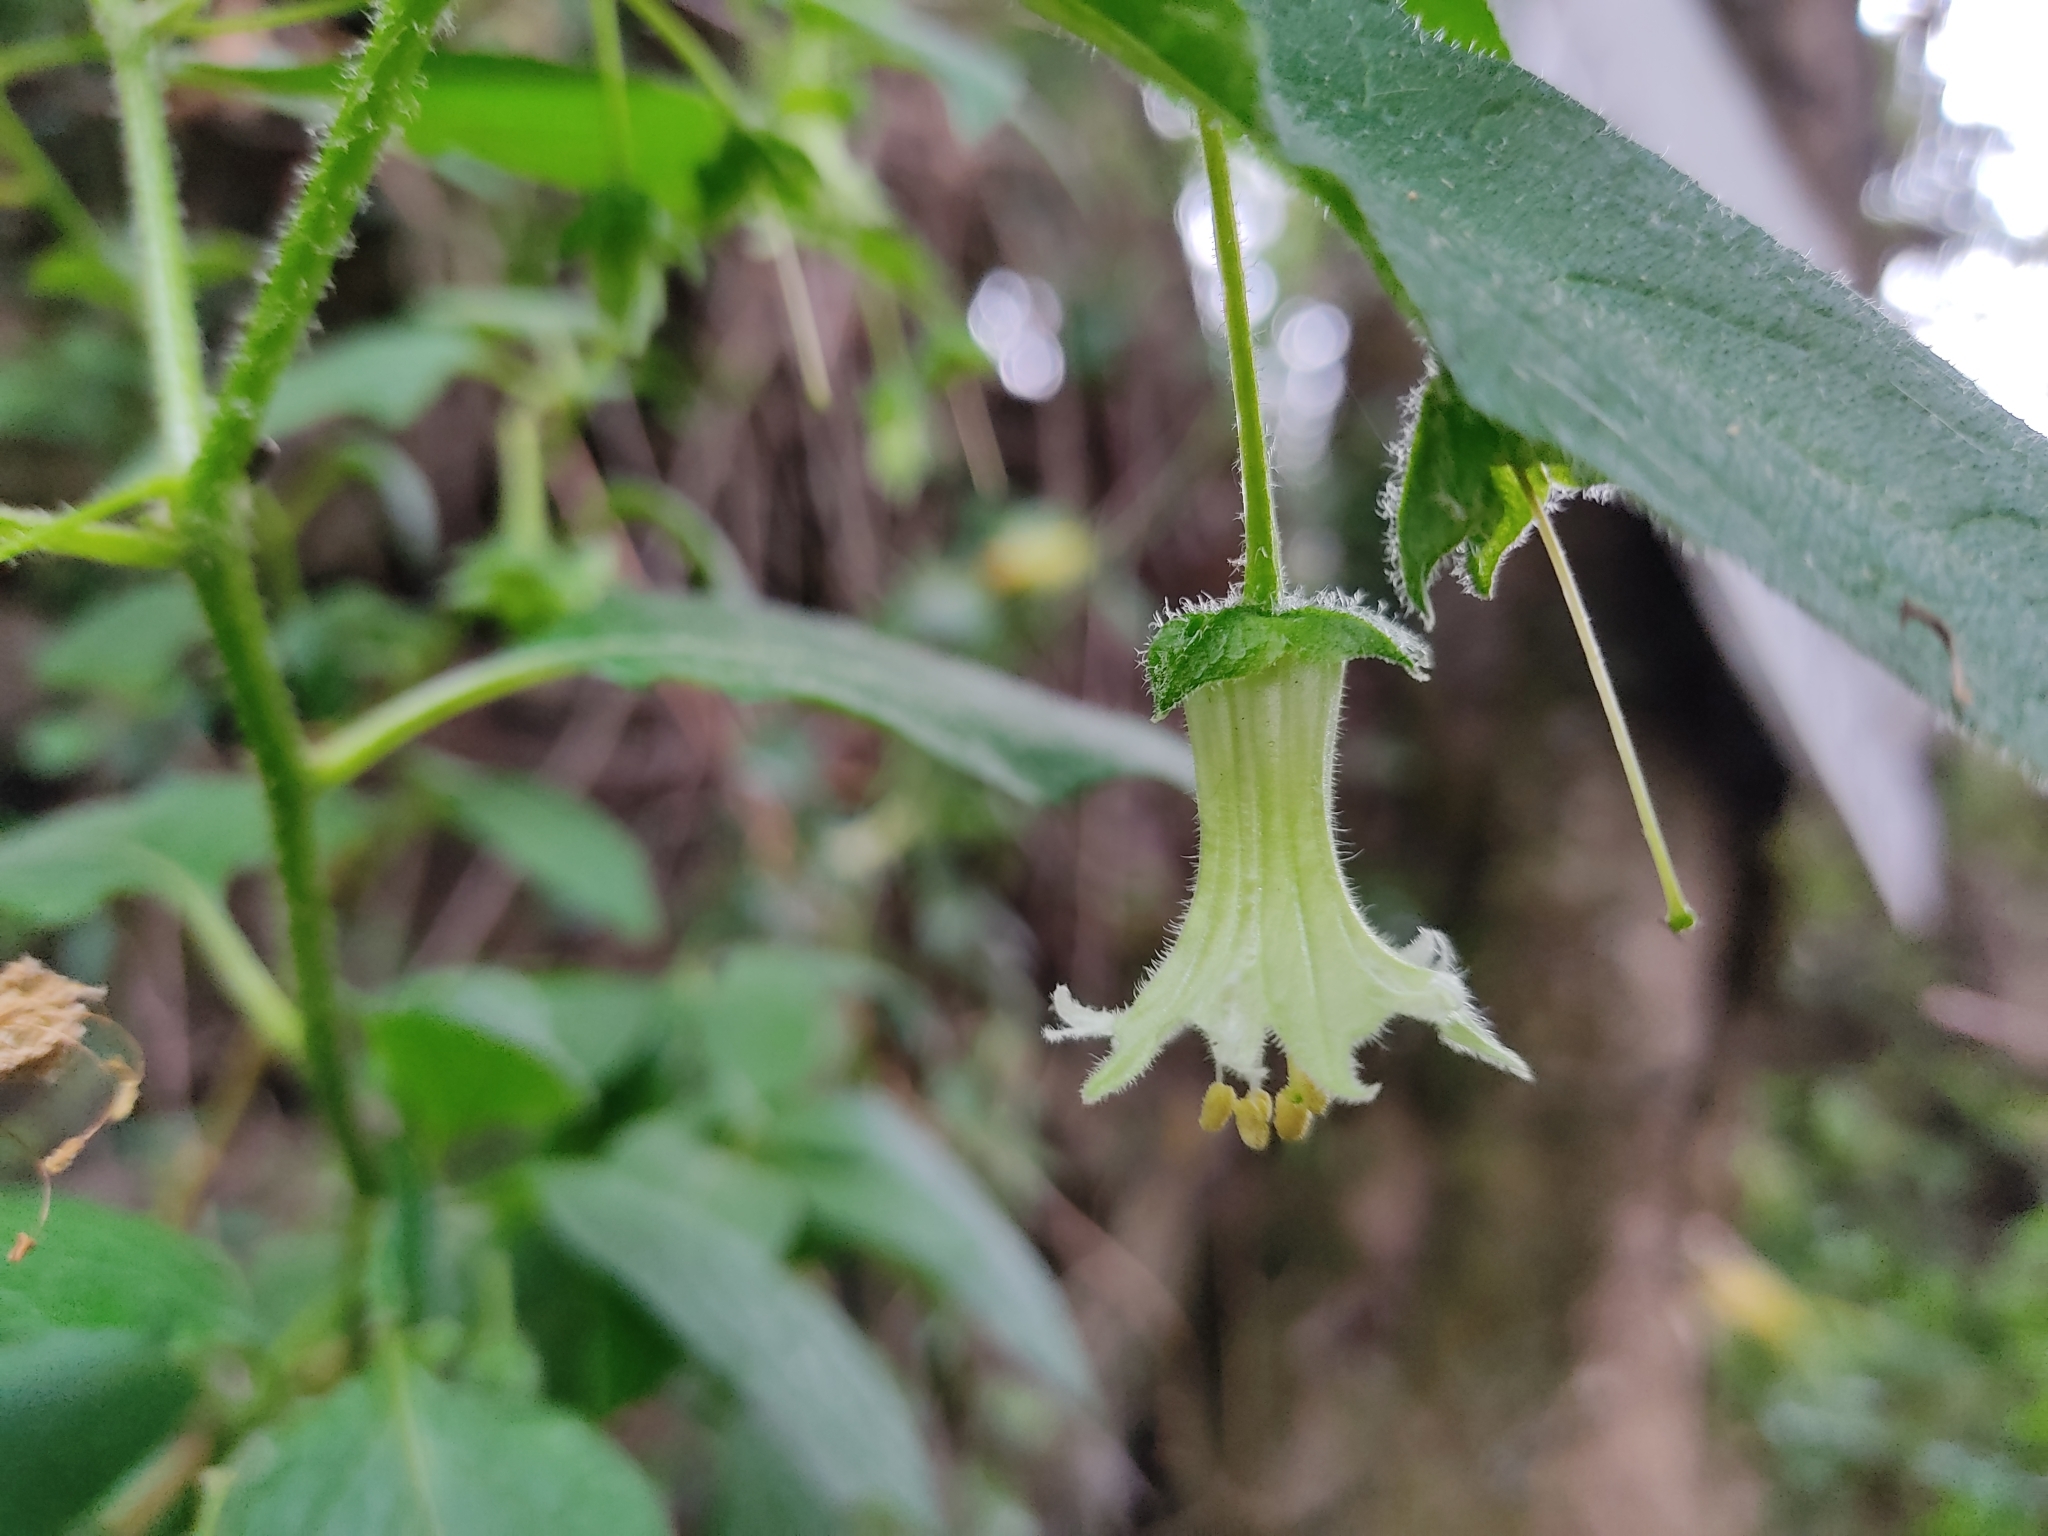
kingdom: Plantae
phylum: Tracheophyta
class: Magnoliopsida
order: Solanales
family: Solanaceae
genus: Jaltomata
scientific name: Jaltomata viridiflora
